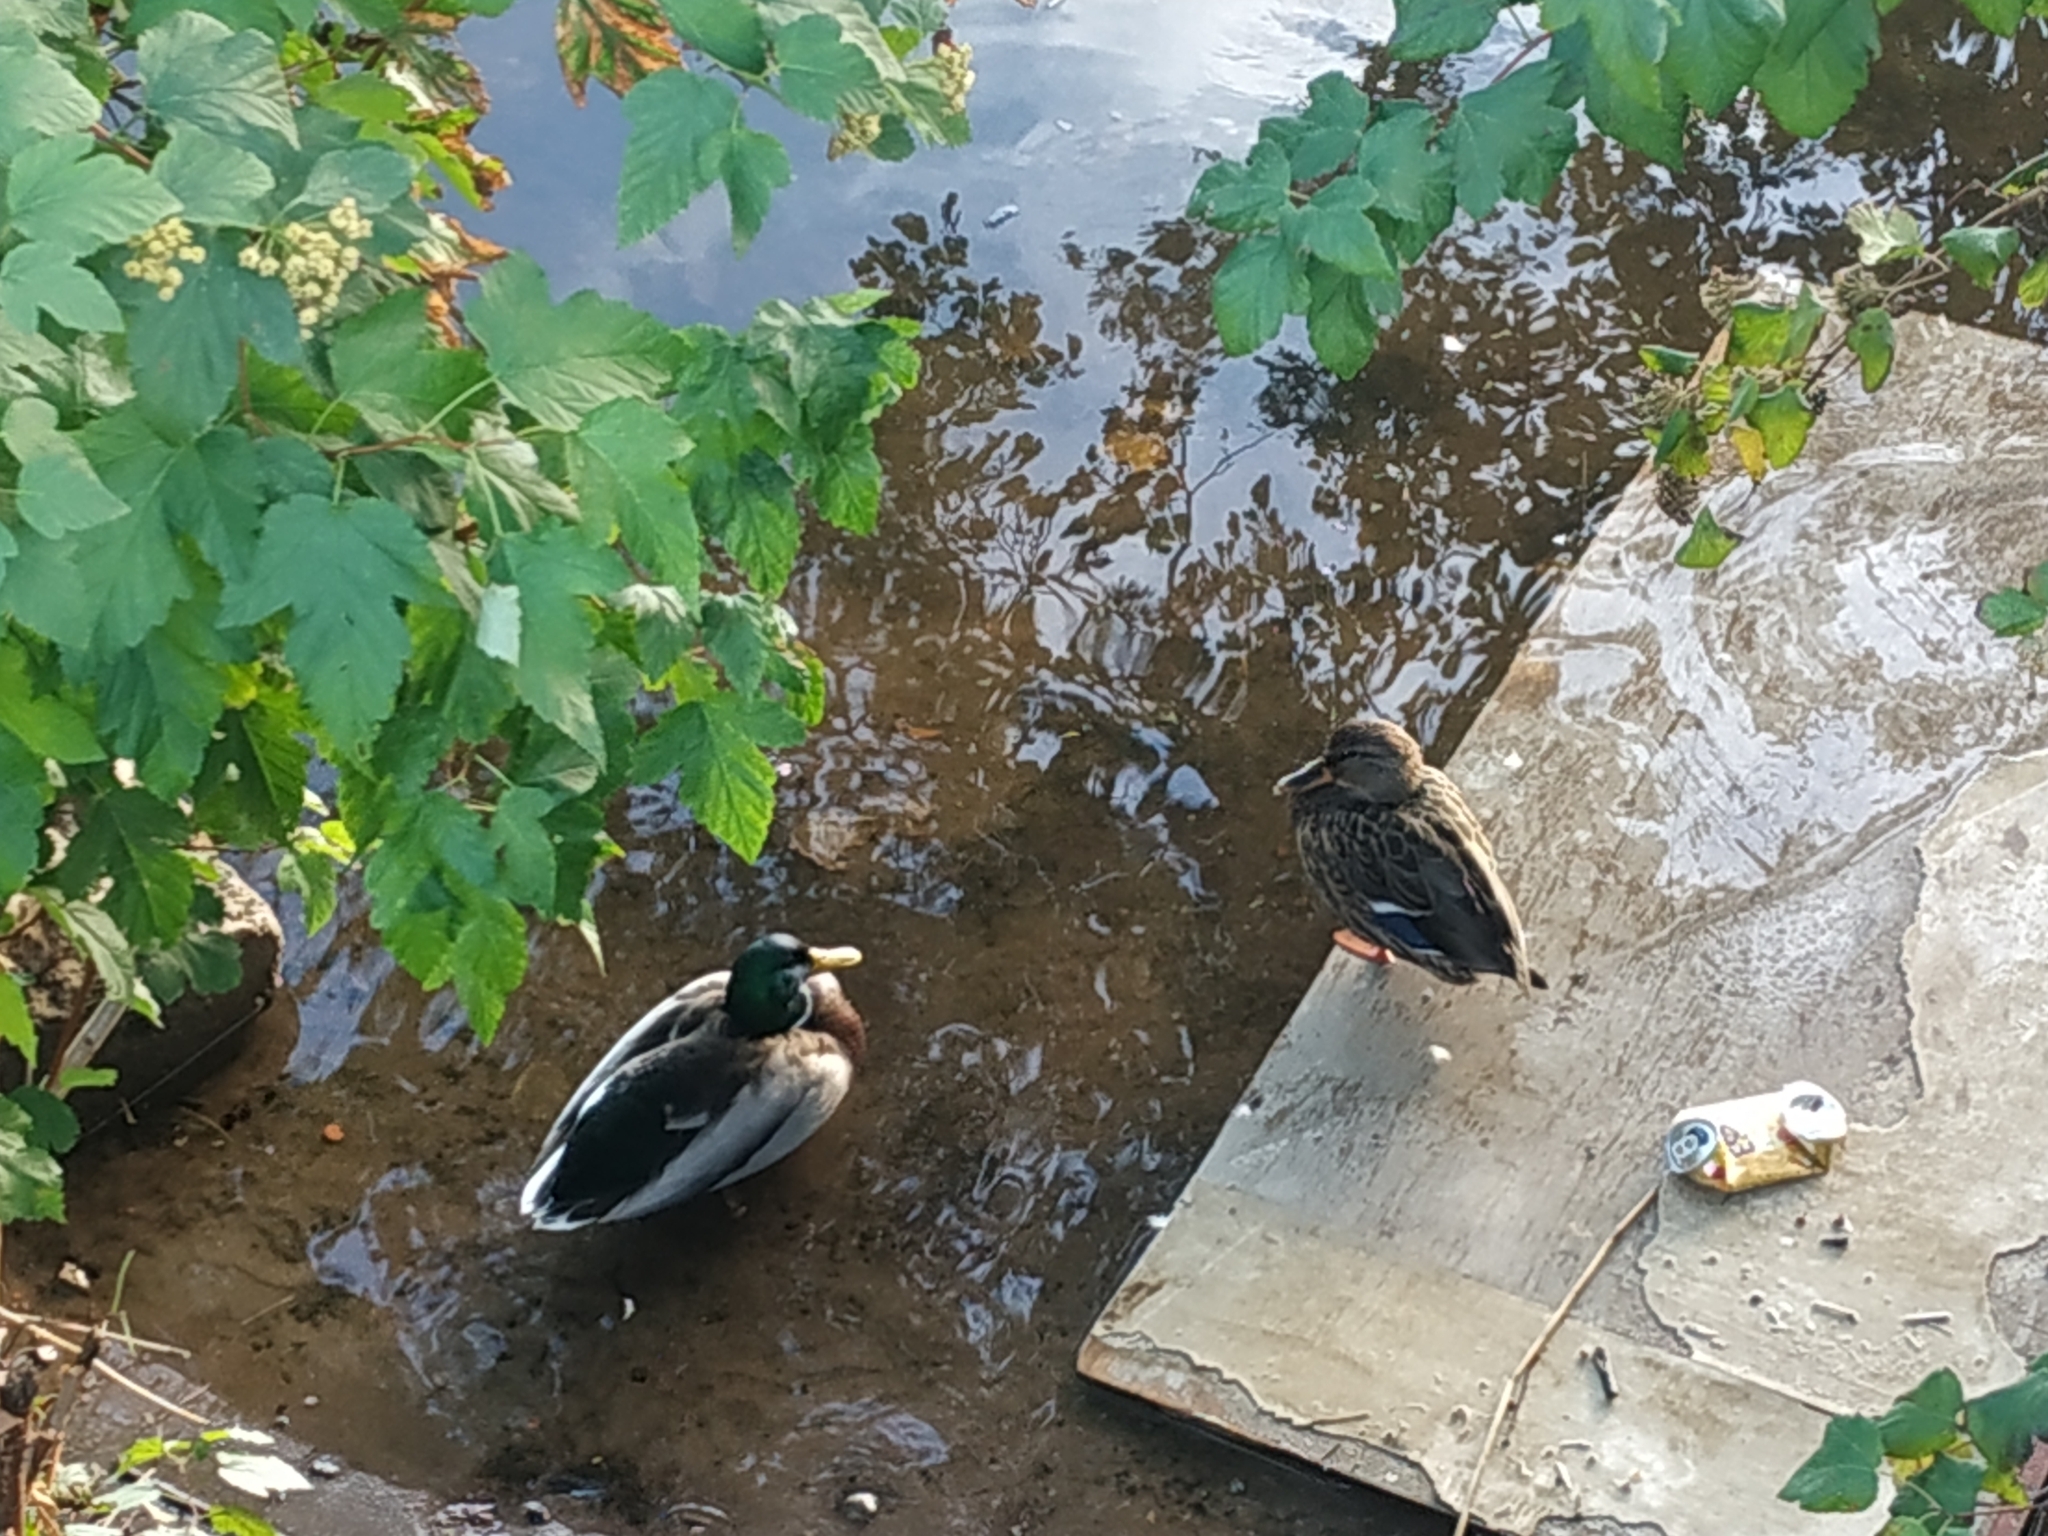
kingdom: Animalia
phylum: Chordata
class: Aves
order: Anseriformes
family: Anatidae
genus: Anas
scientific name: Anas platyrhynchos
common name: Mallard
